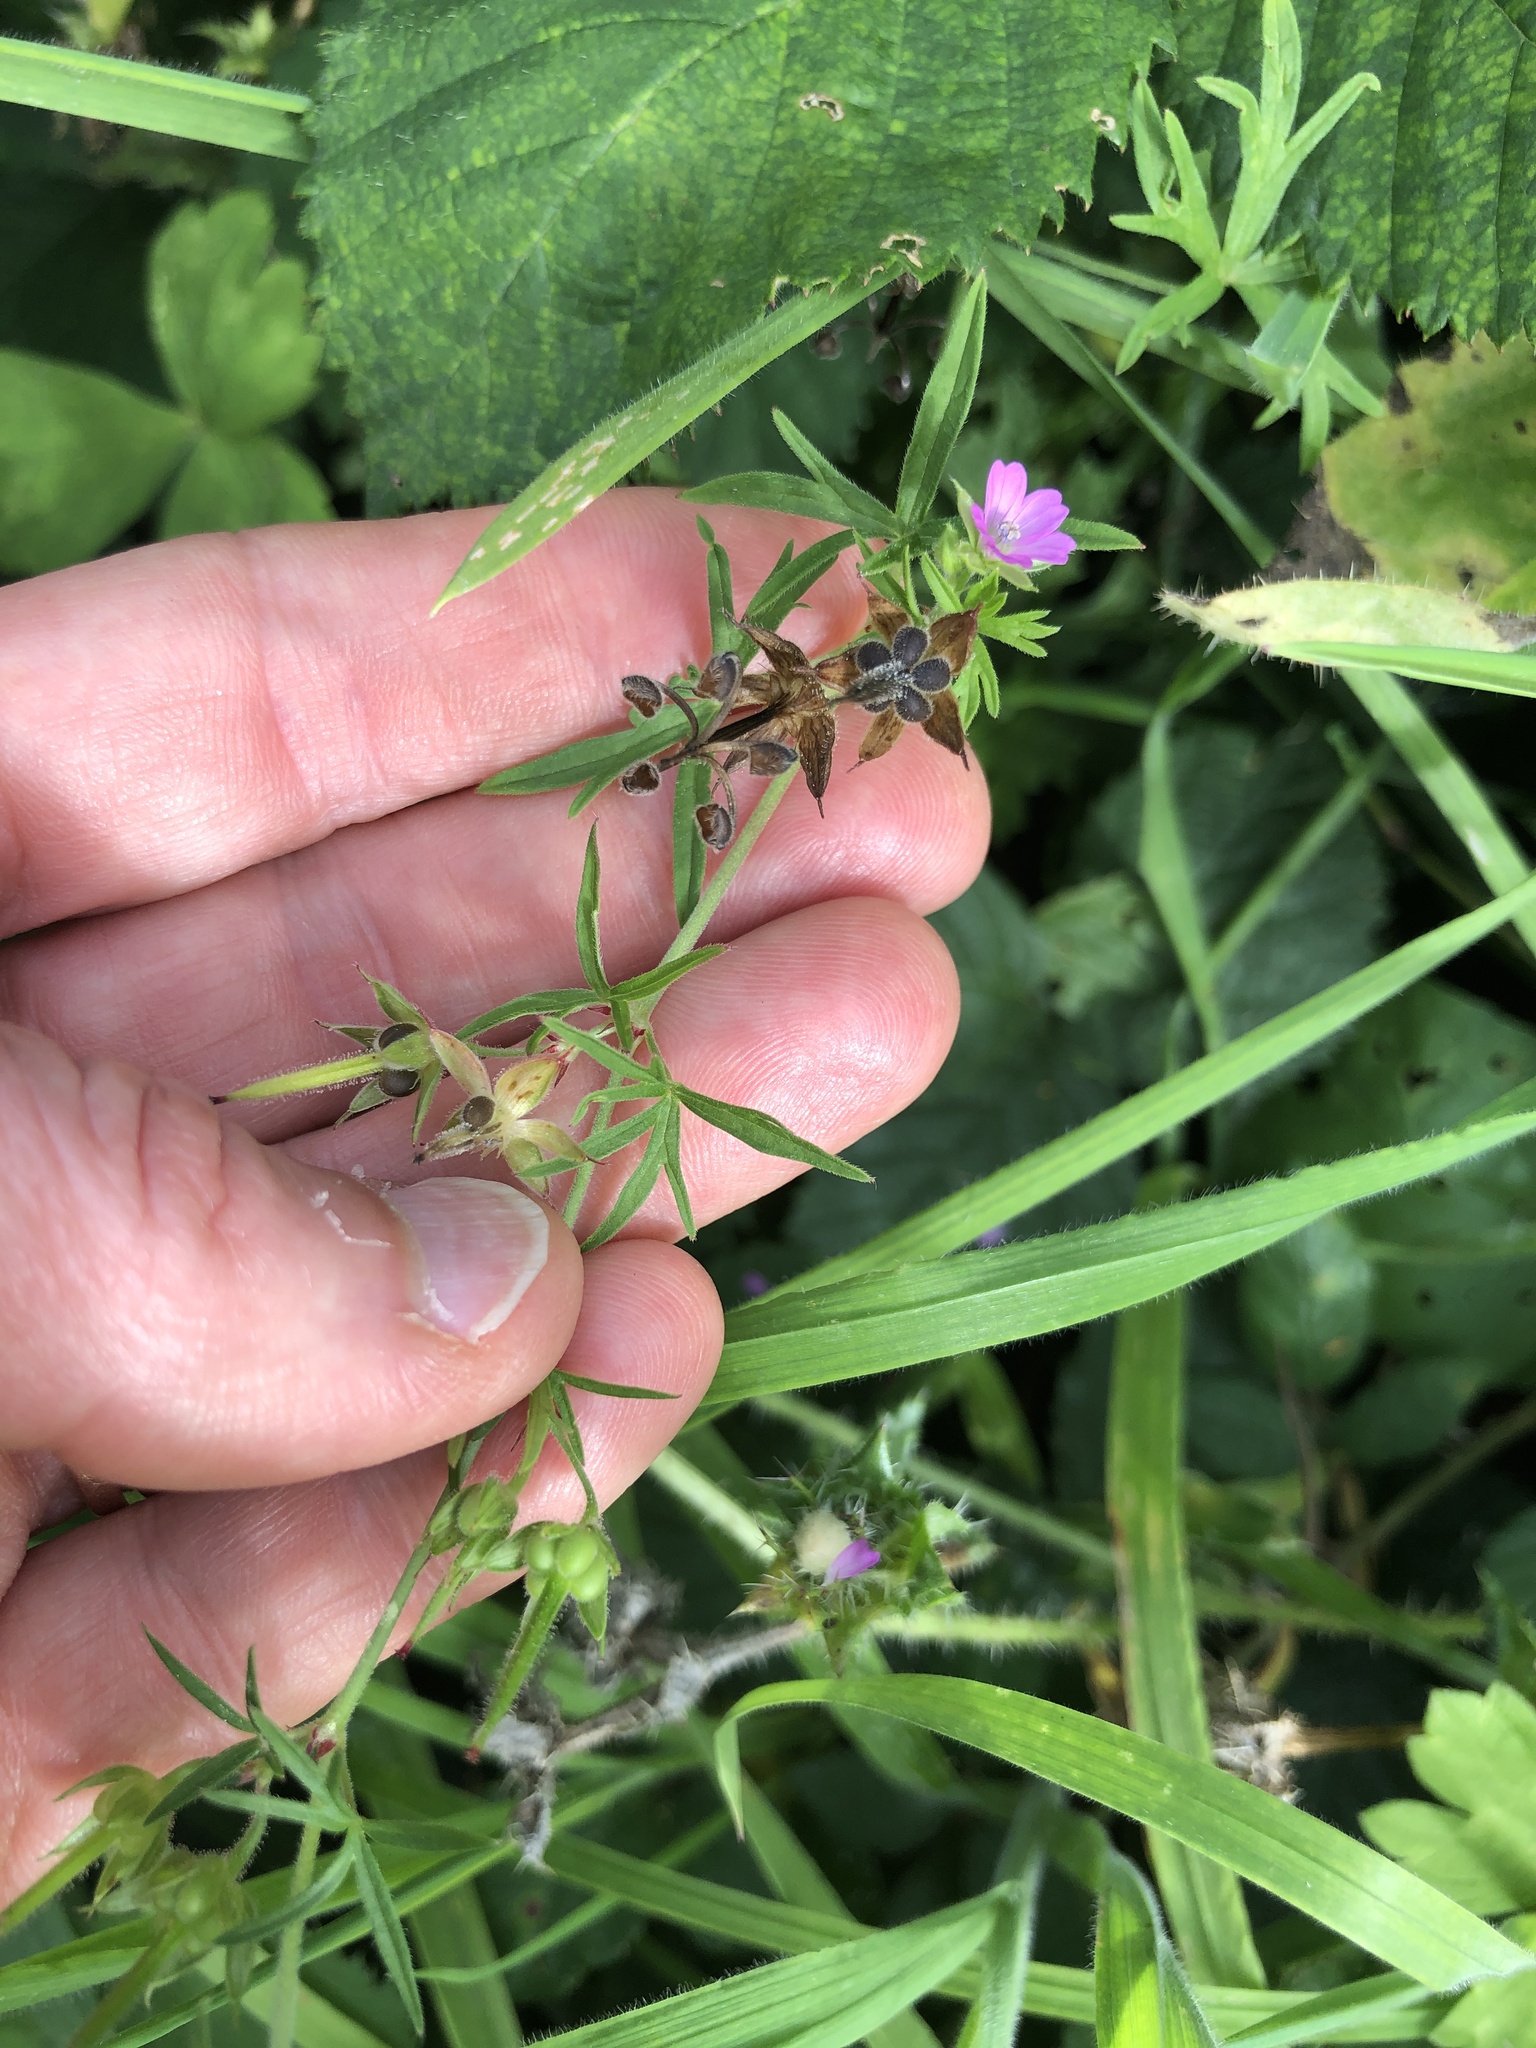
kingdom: Plantae
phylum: Tracheophyta
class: Magnoliopsida
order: Geraniales
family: Geraniaceae
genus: Geranium
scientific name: Geranium dissectum
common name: Cut-leaved crane's-bill
